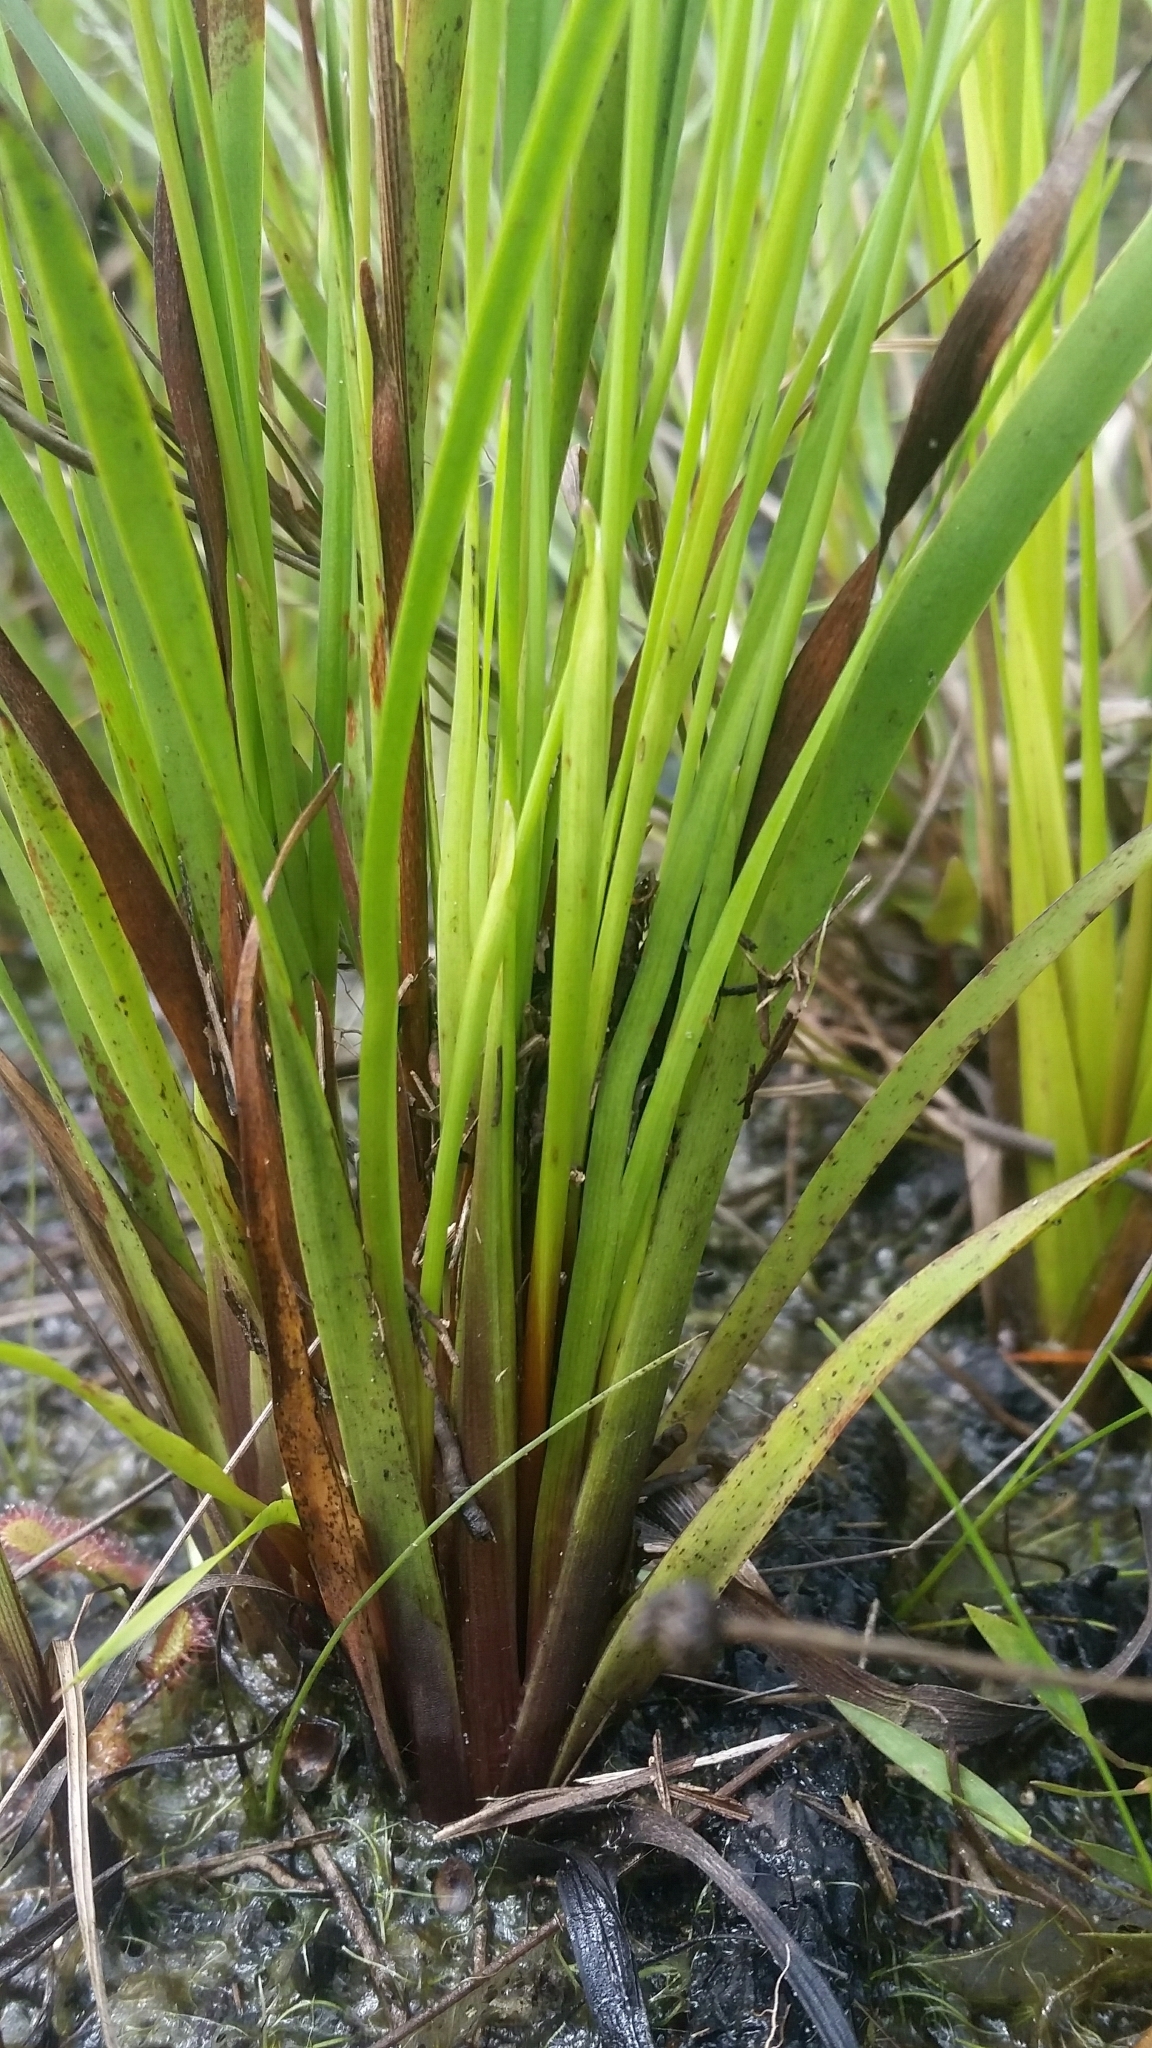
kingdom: Plantae
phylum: Tracheophyta
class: Liliopsida
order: Poales
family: Xyridaceae
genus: Xyris
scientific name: Xyris floridana
